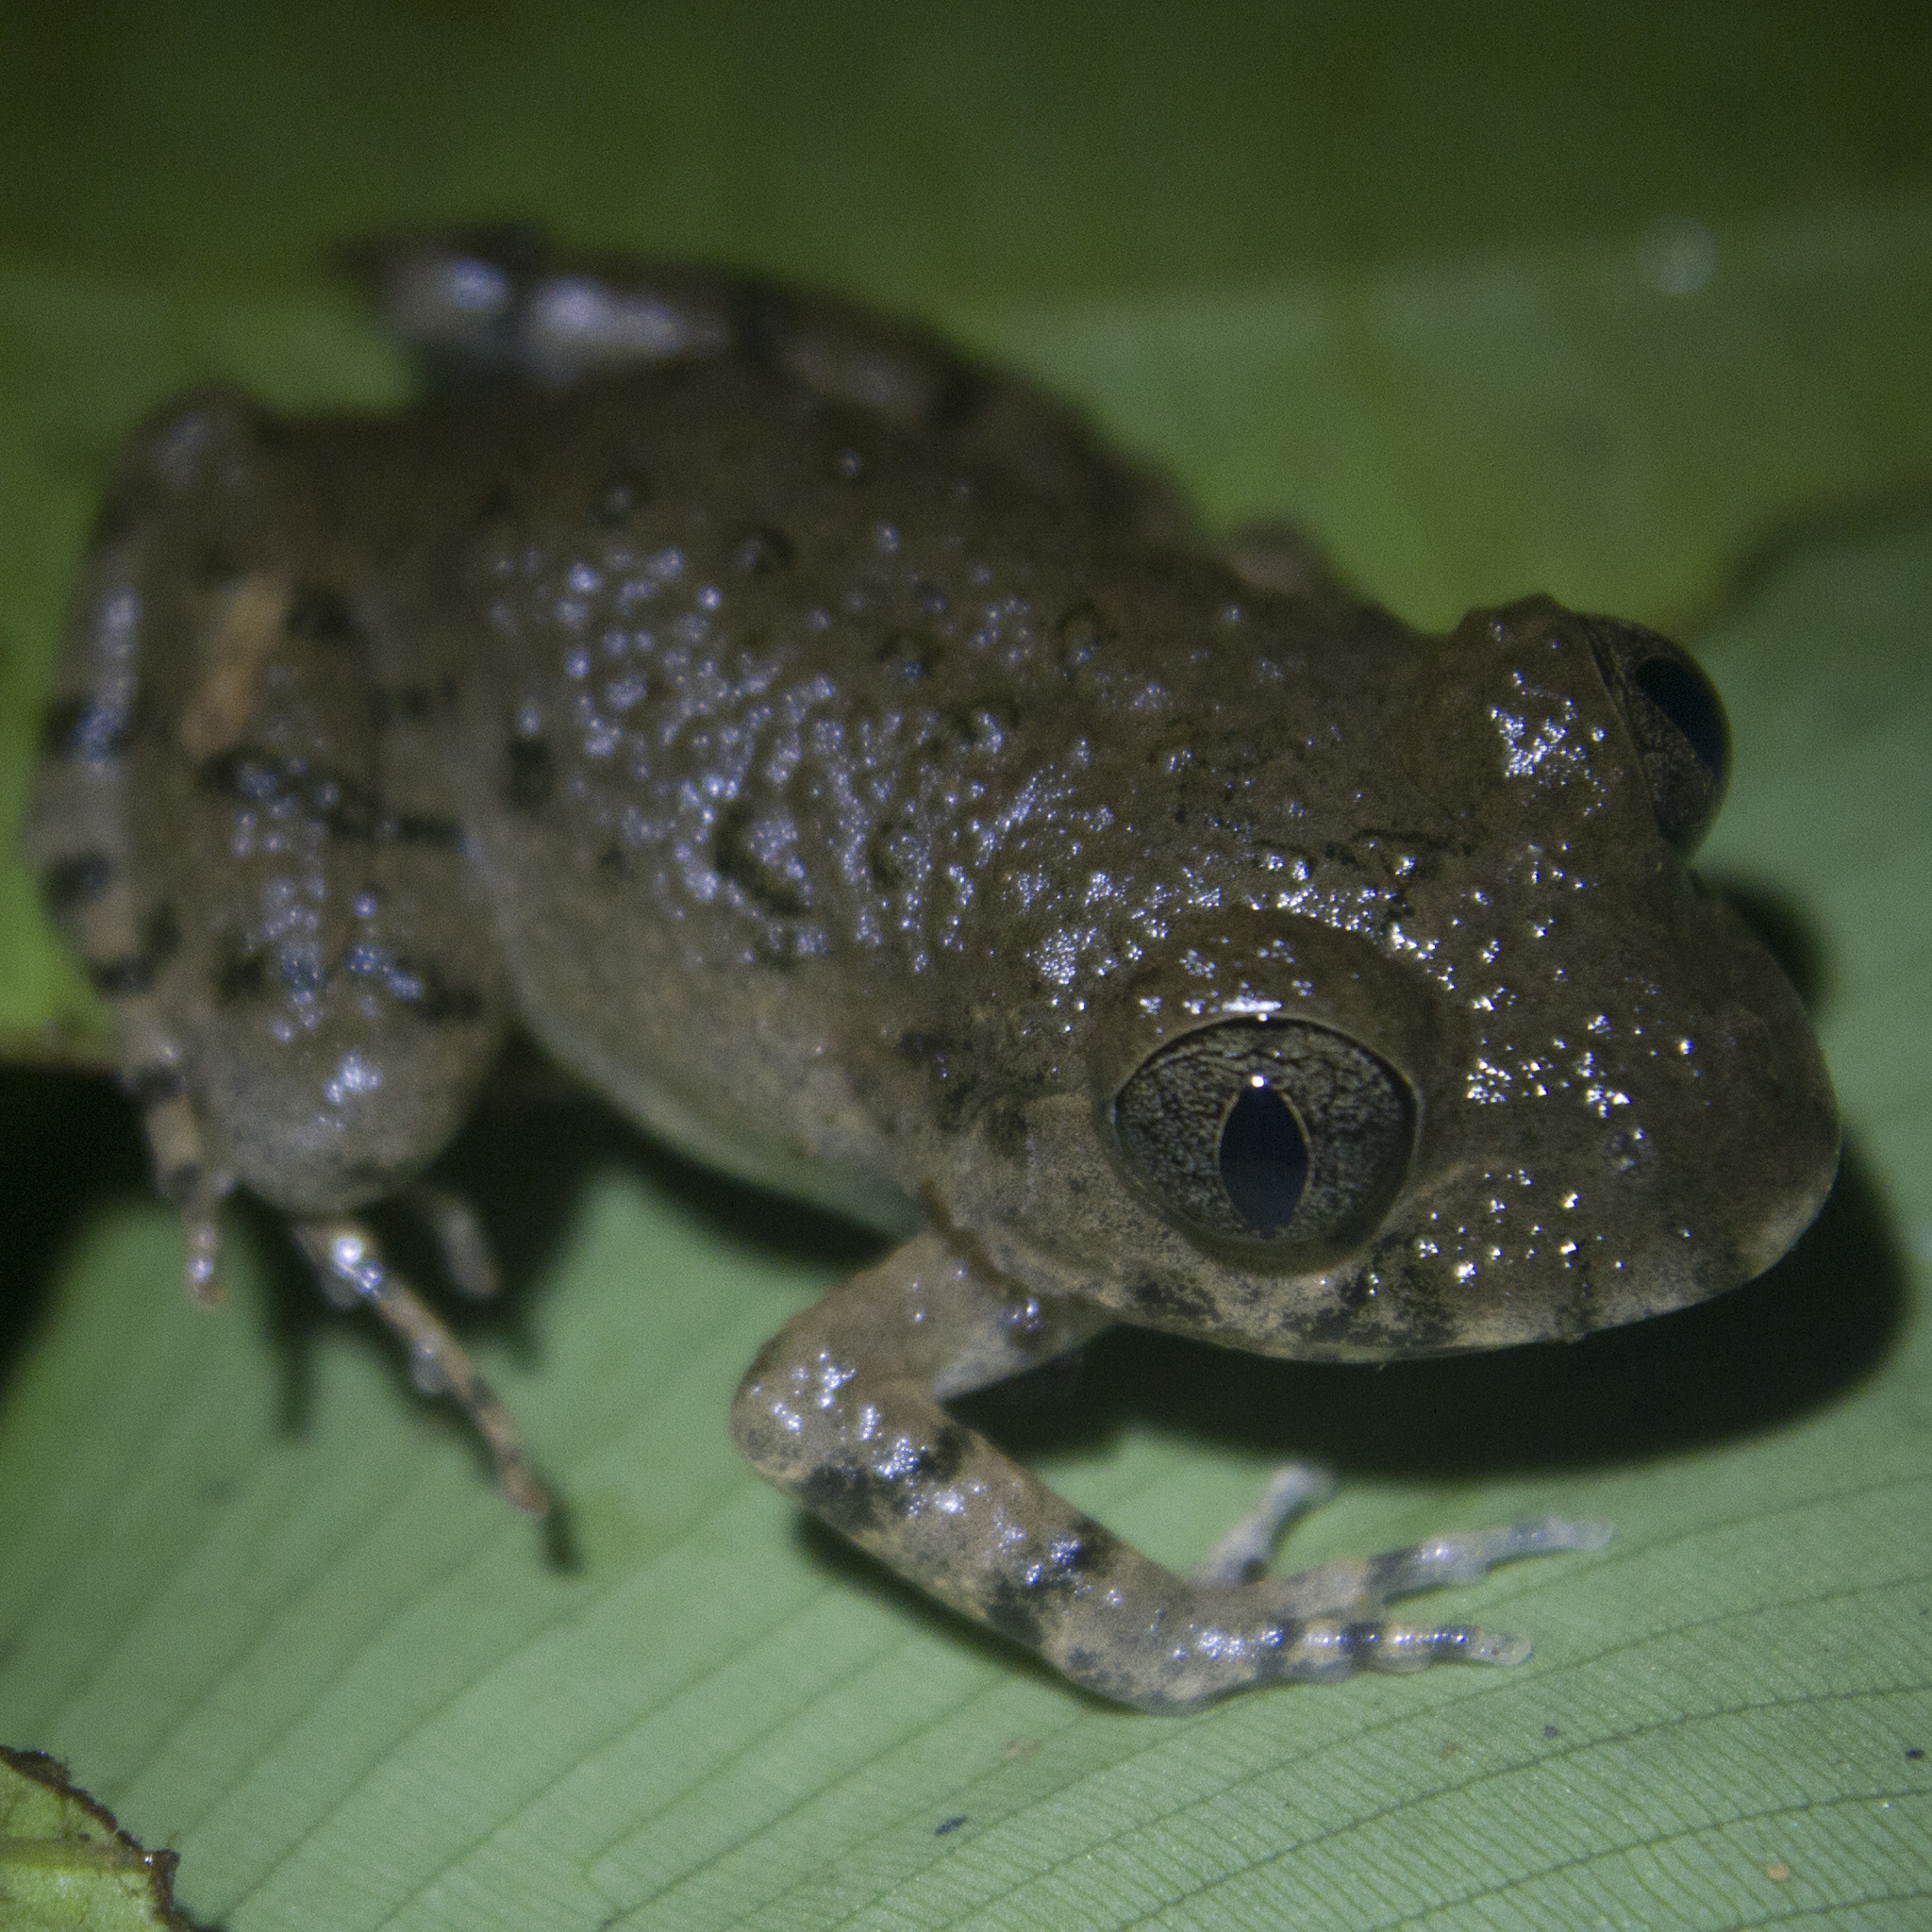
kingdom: Animalia
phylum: Chordata
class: Amphibia
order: Anura
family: Arthroleptidae
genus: Scotobleps
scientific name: Scotobleps gabonicus
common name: Gaboon forest frog
